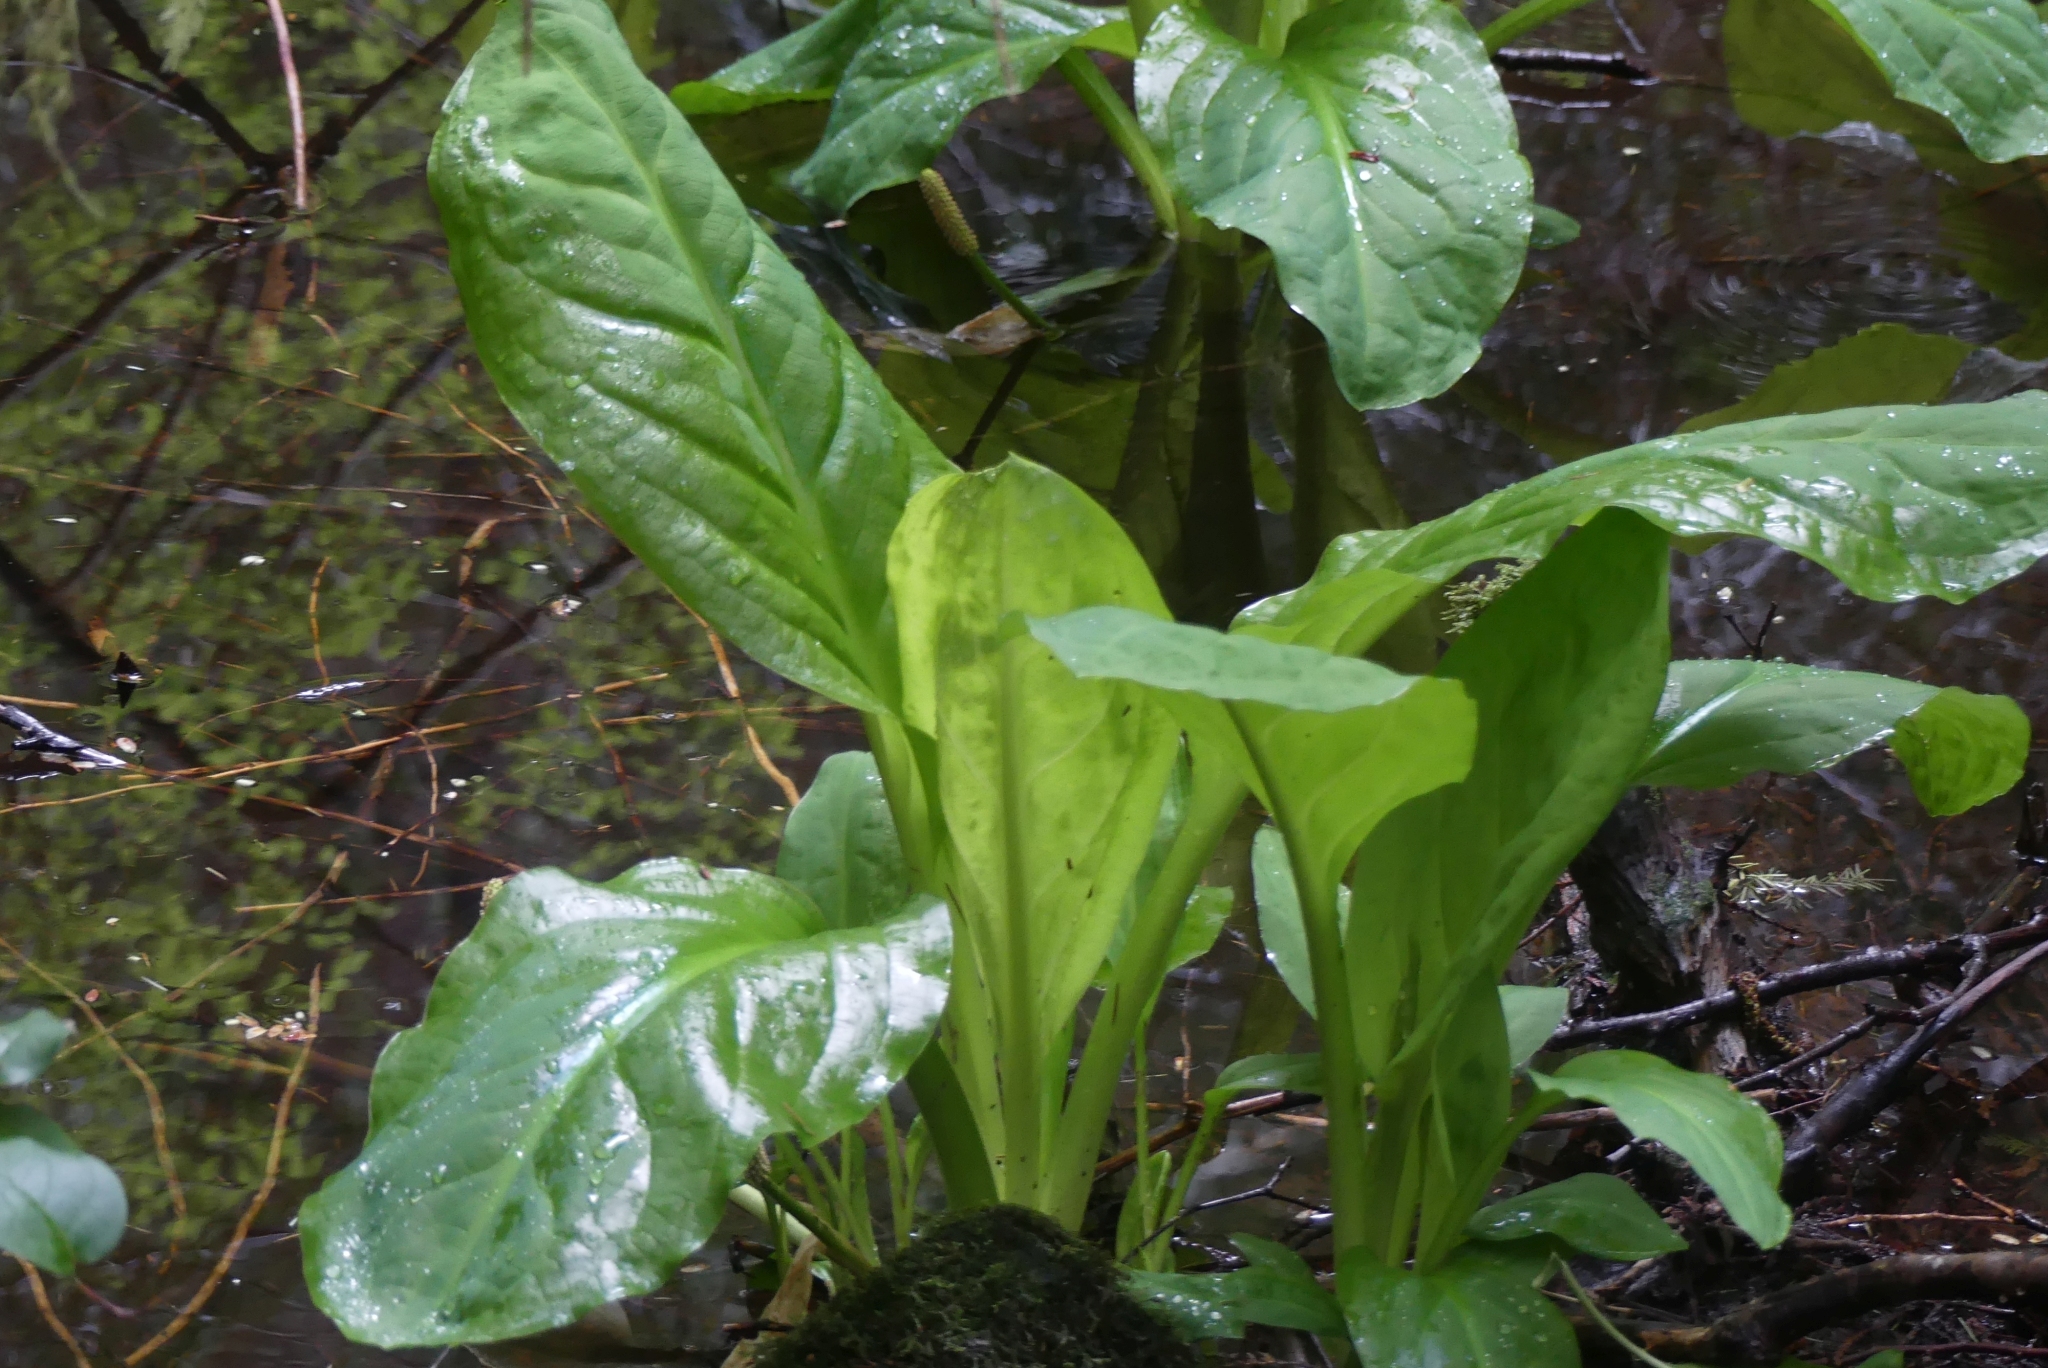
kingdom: Plantae
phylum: Tracheophyta
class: Liliopsida
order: Alismatales
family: Araceae
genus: Lysichiton
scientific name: Lysichiton americanus
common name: American skunk cabbage
